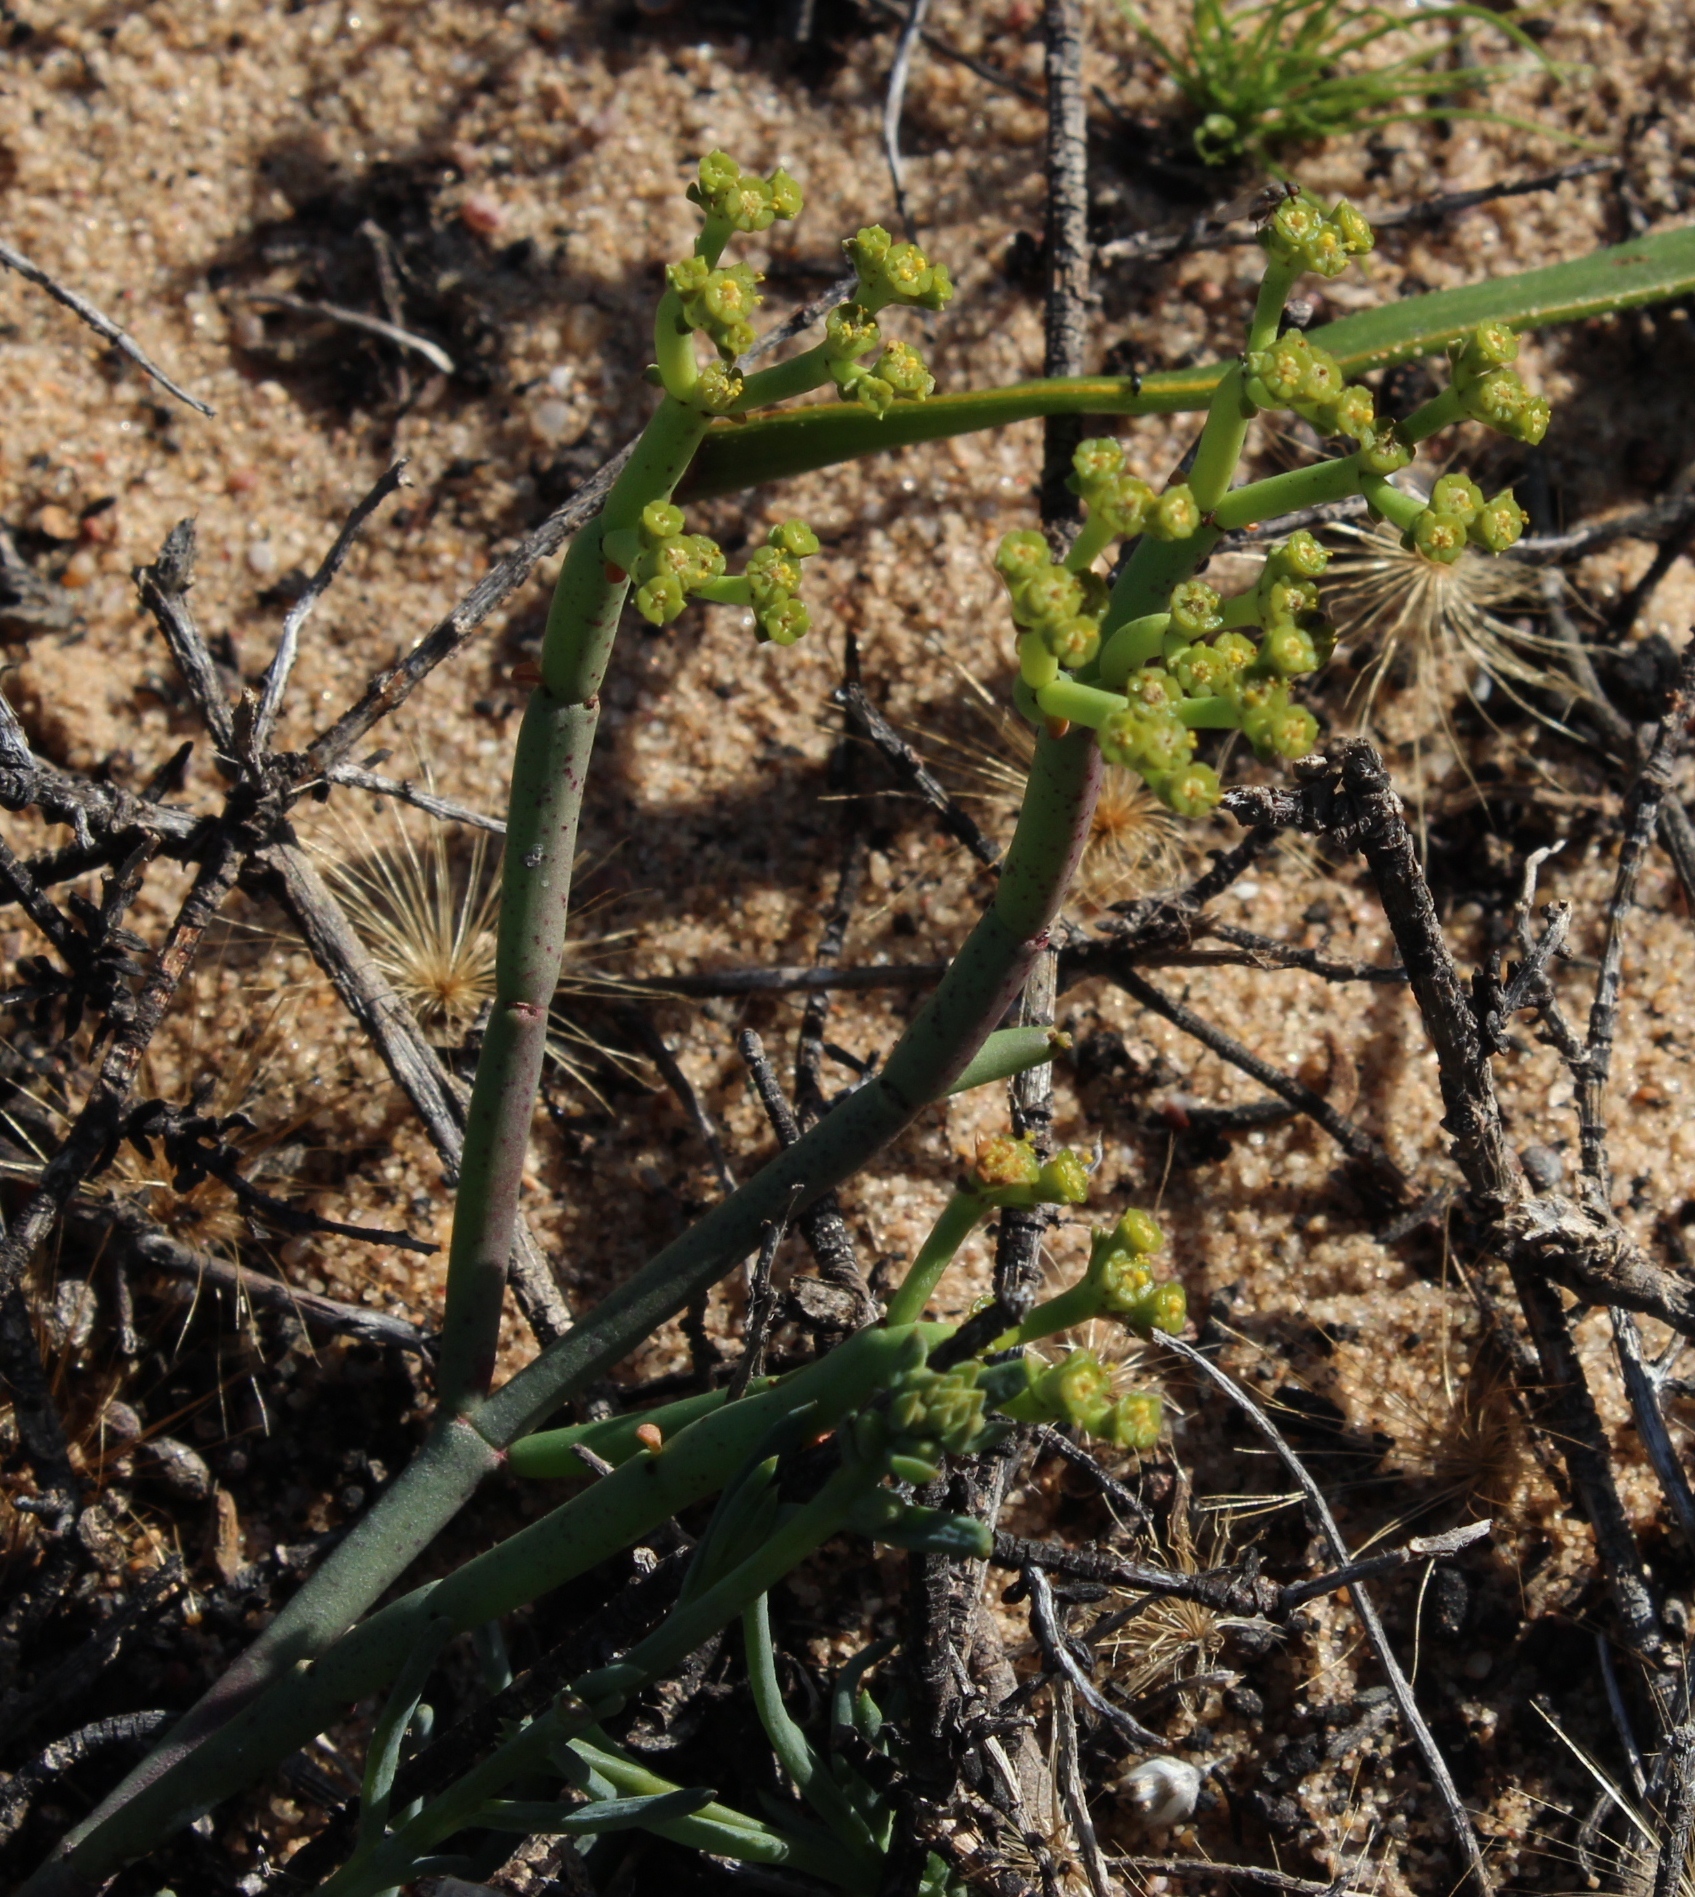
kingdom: Plantae
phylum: Tracheophyta
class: Magnoliopsida
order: Malpighiales
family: Euphorbiaceae
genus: Euphorbia
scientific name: Euphorbia burmanni
